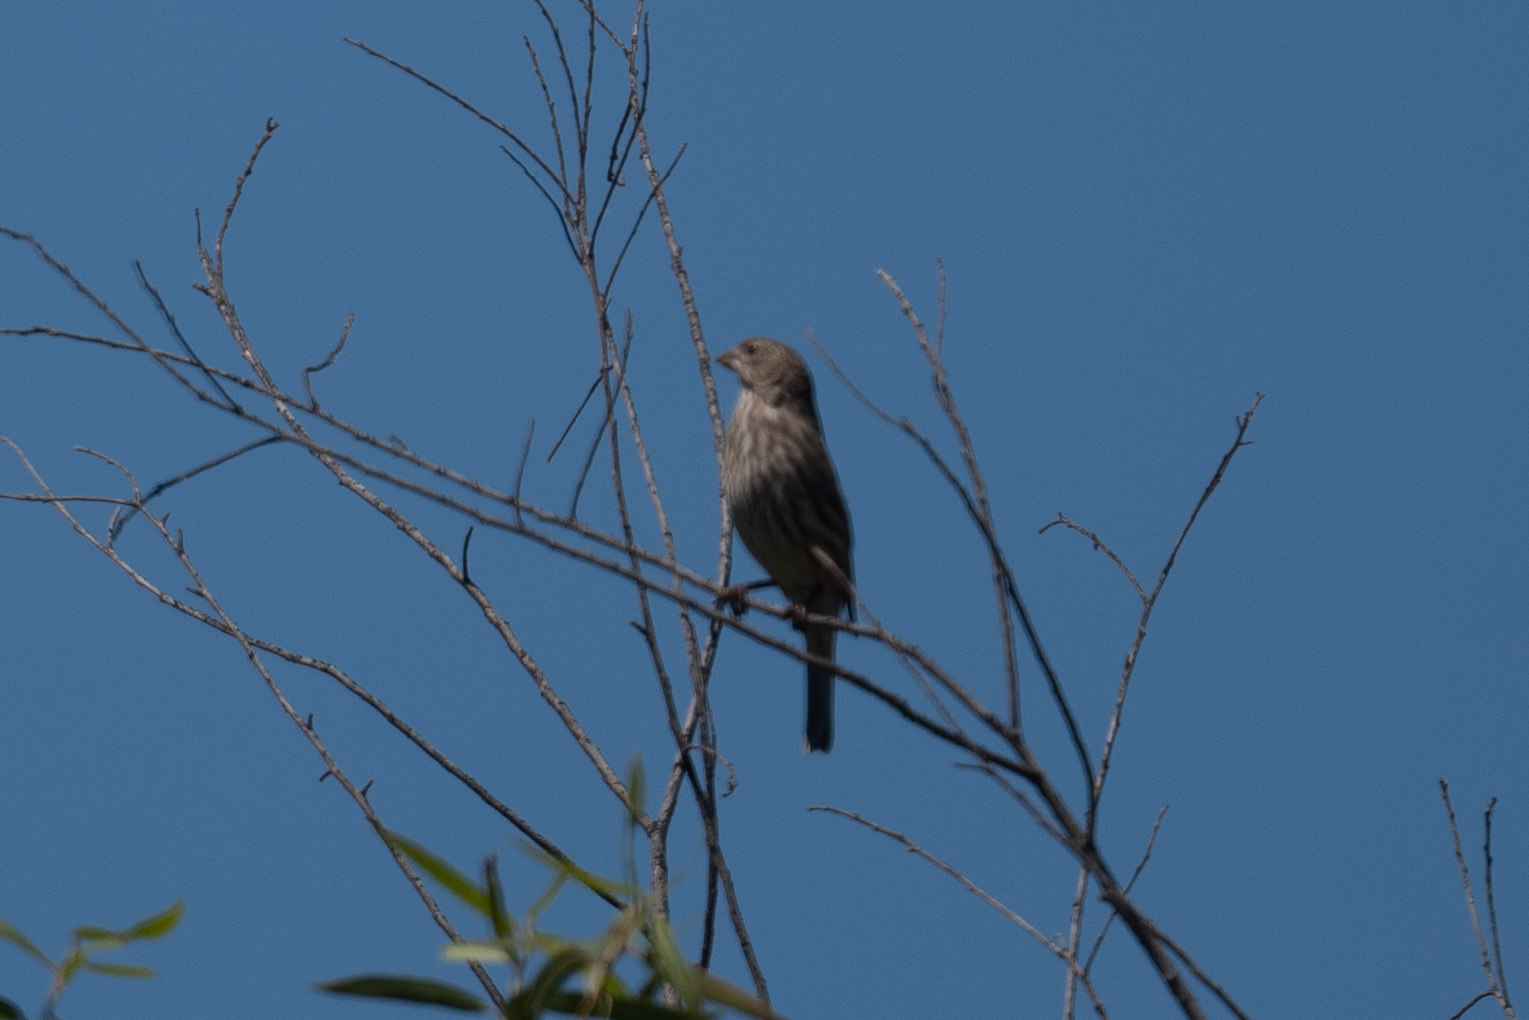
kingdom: Animalia
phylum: Chordata
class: Aves
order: Passeriformes
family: Fringillidae
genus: Haemorhous
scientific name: Haemorhous mexicanus
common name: House finch
